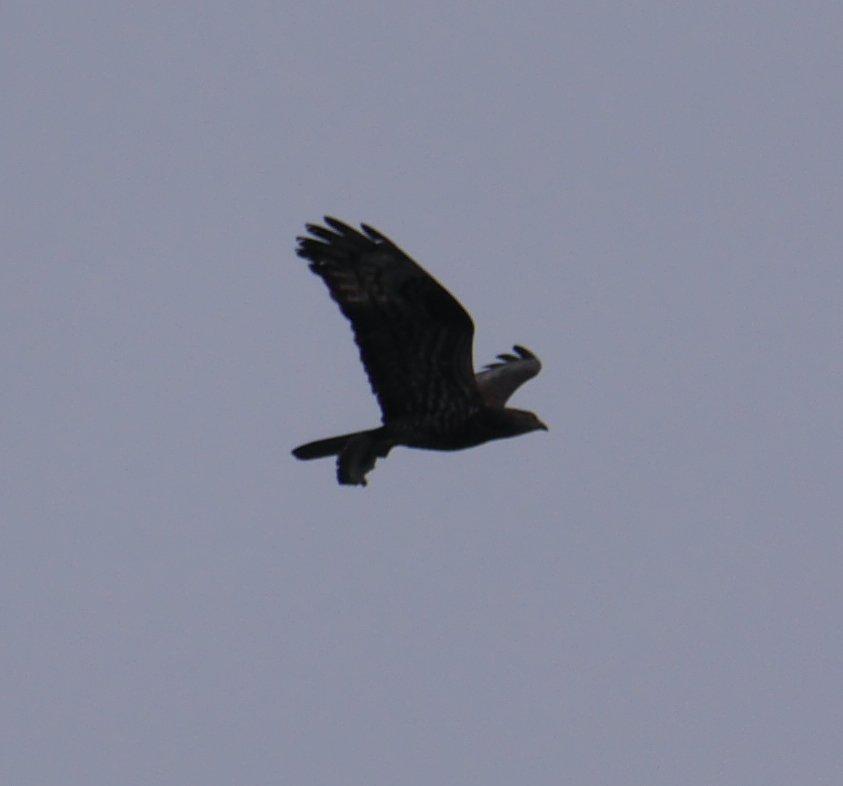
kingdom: Animalia
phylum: Chordata
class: Aves
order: Accipitriformes
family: Accipitridae
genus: Pernis
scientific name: Pernis apivorus
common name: European honey buzzard
